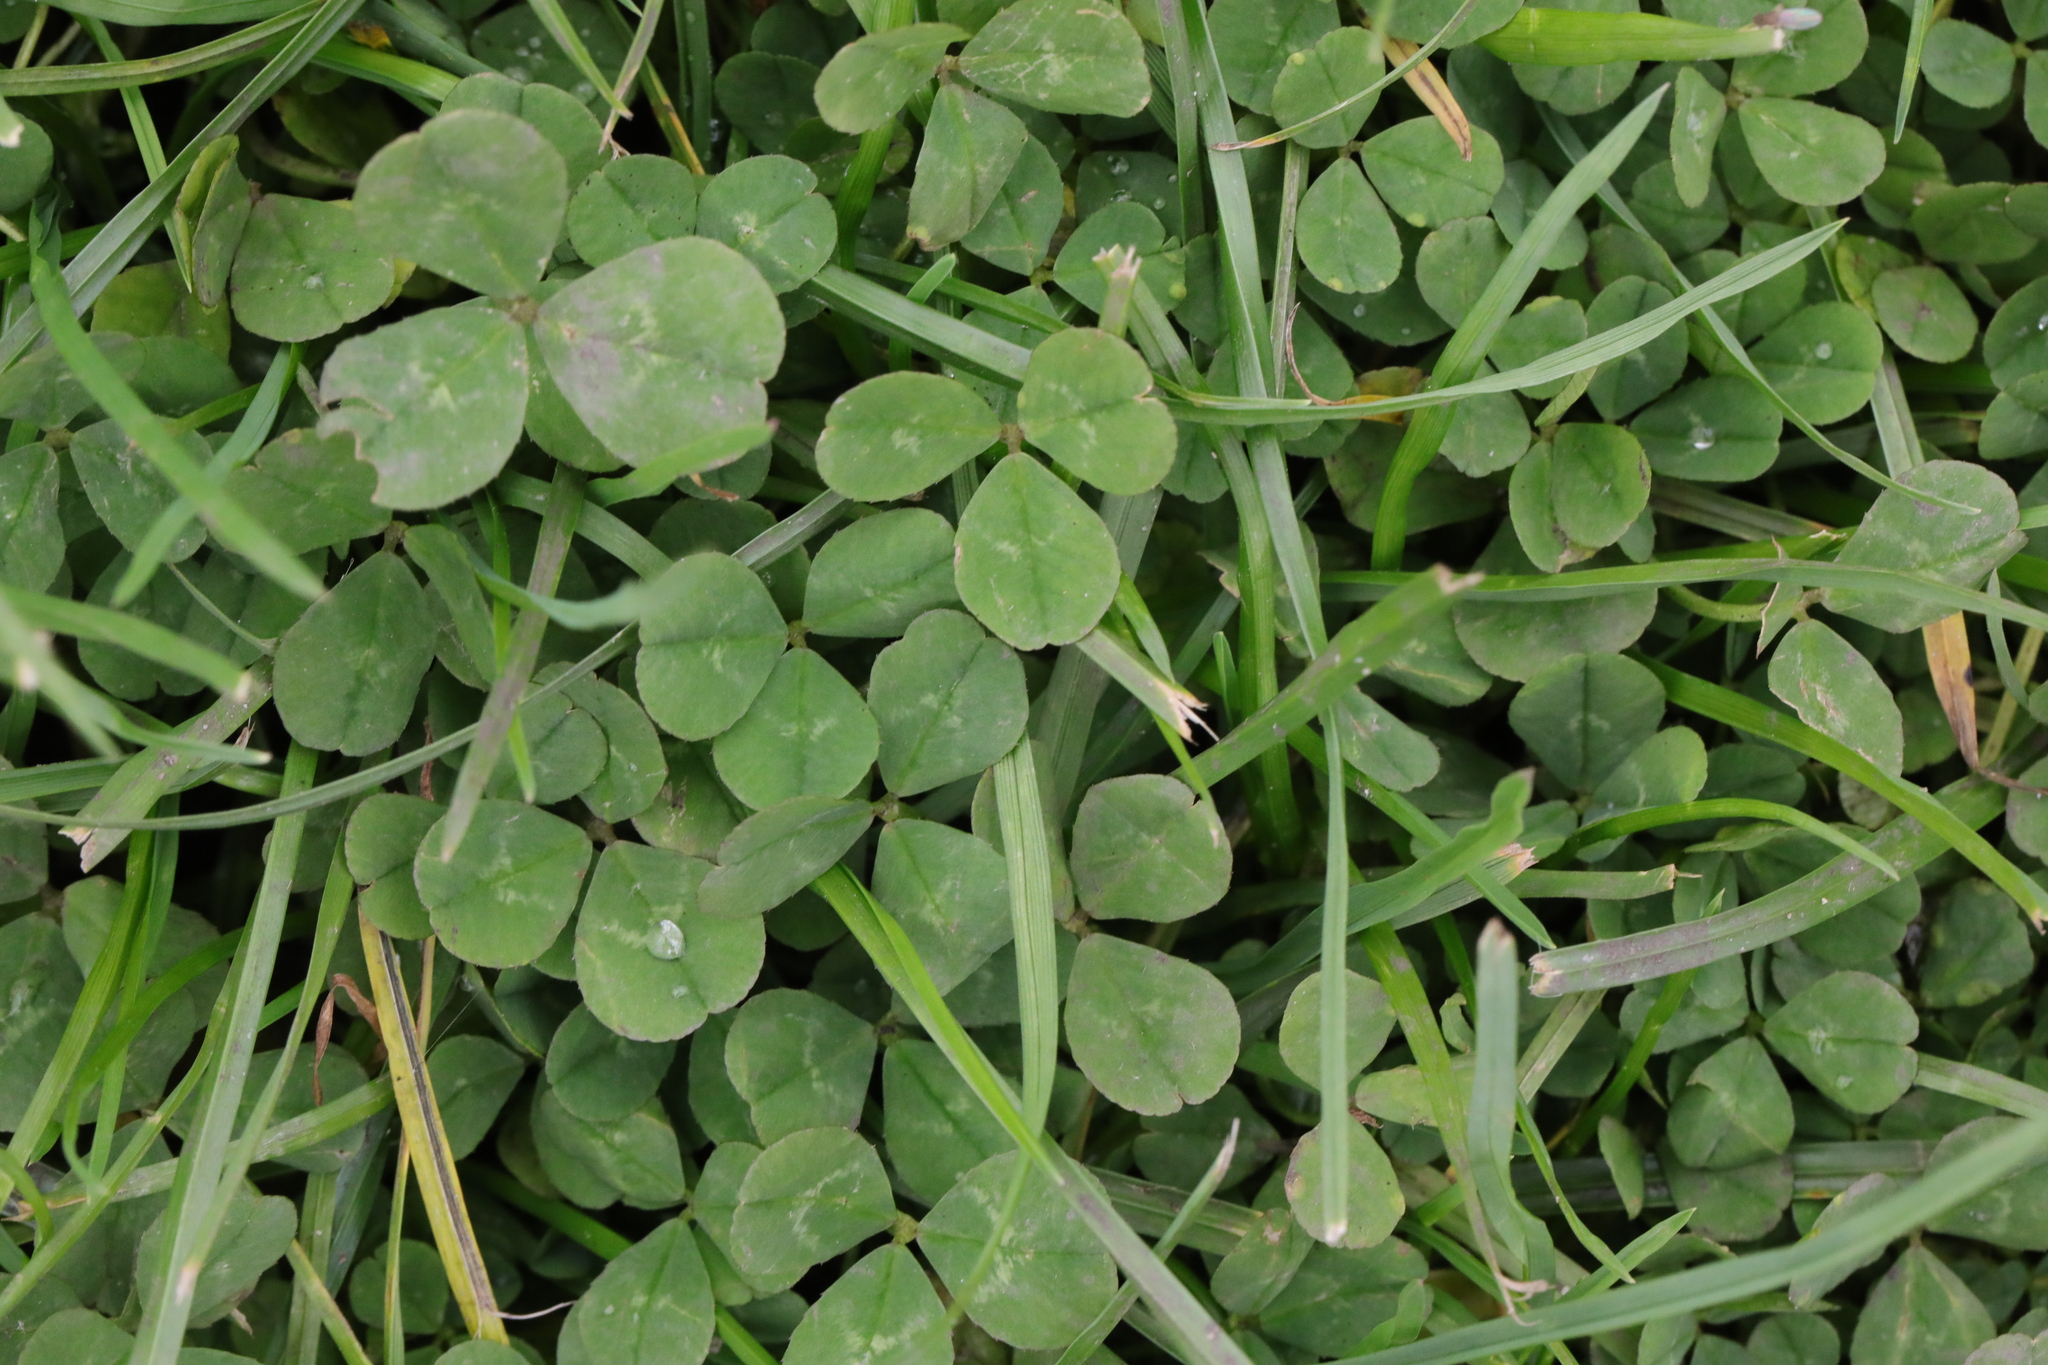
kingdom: Plantae
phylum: Tracheophyta
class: Magnoliopsida
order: Fabales
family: Fabaceae
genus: Trifolium
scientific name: Trifolium repens
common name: White clover
